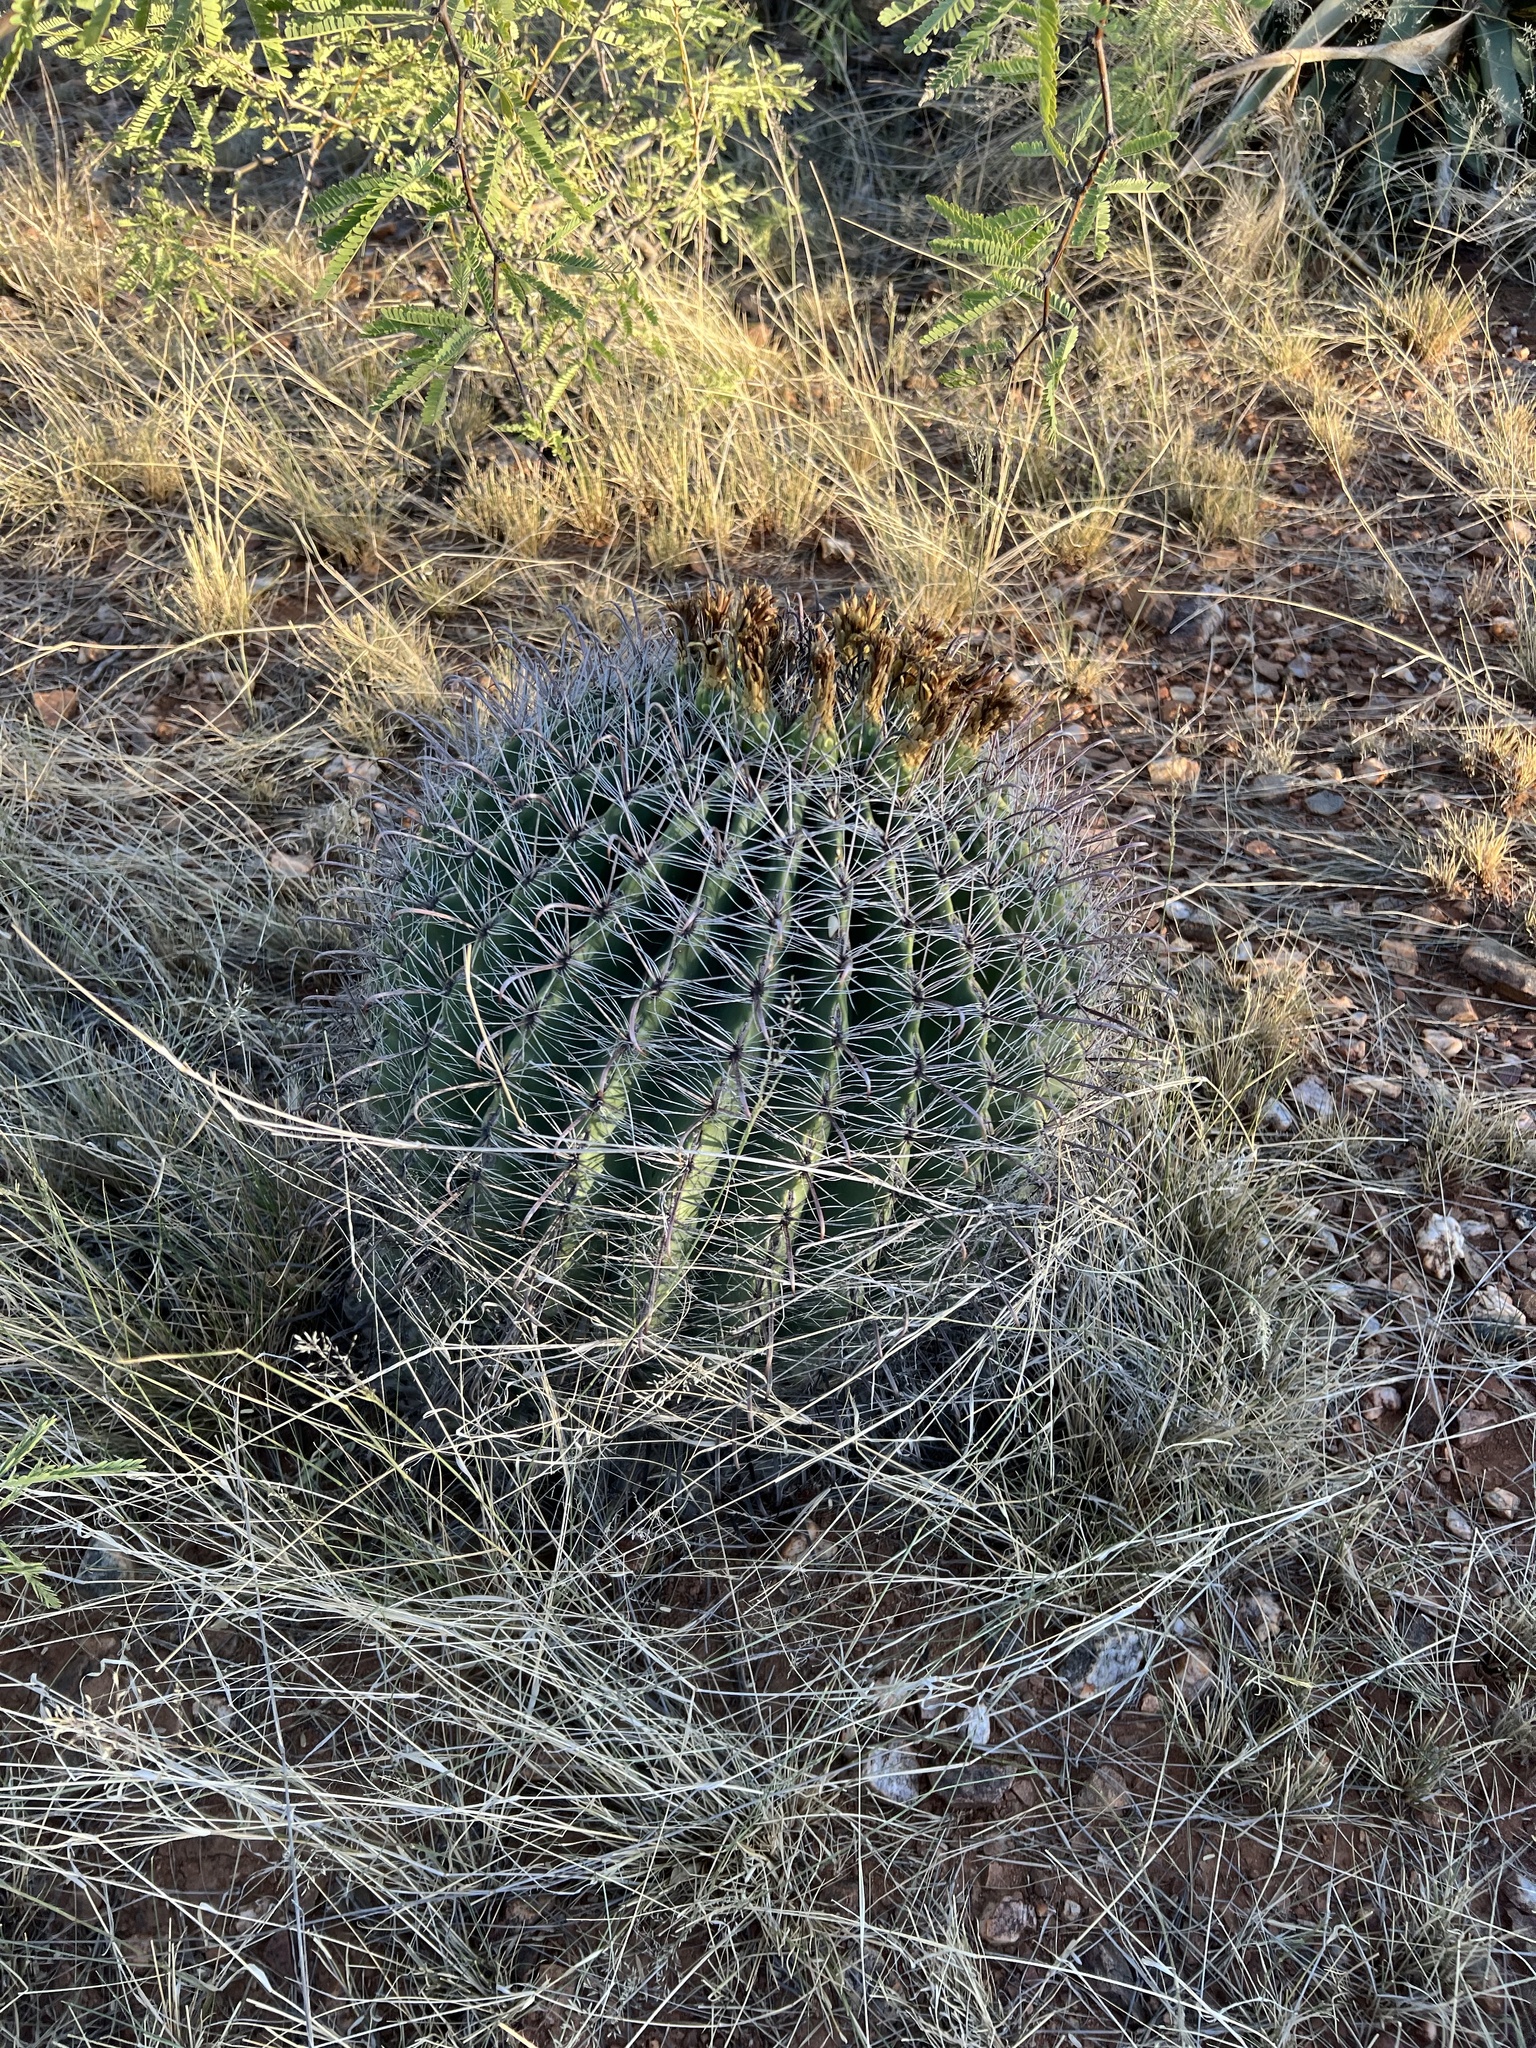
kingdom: Plantae
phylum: Tracheophyta
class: Magnoliopsida
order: Caryophyllales
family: Cactaceae
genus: Ferocactus
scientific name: Ferocactus wislizeni
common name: Candy barrel cactus
